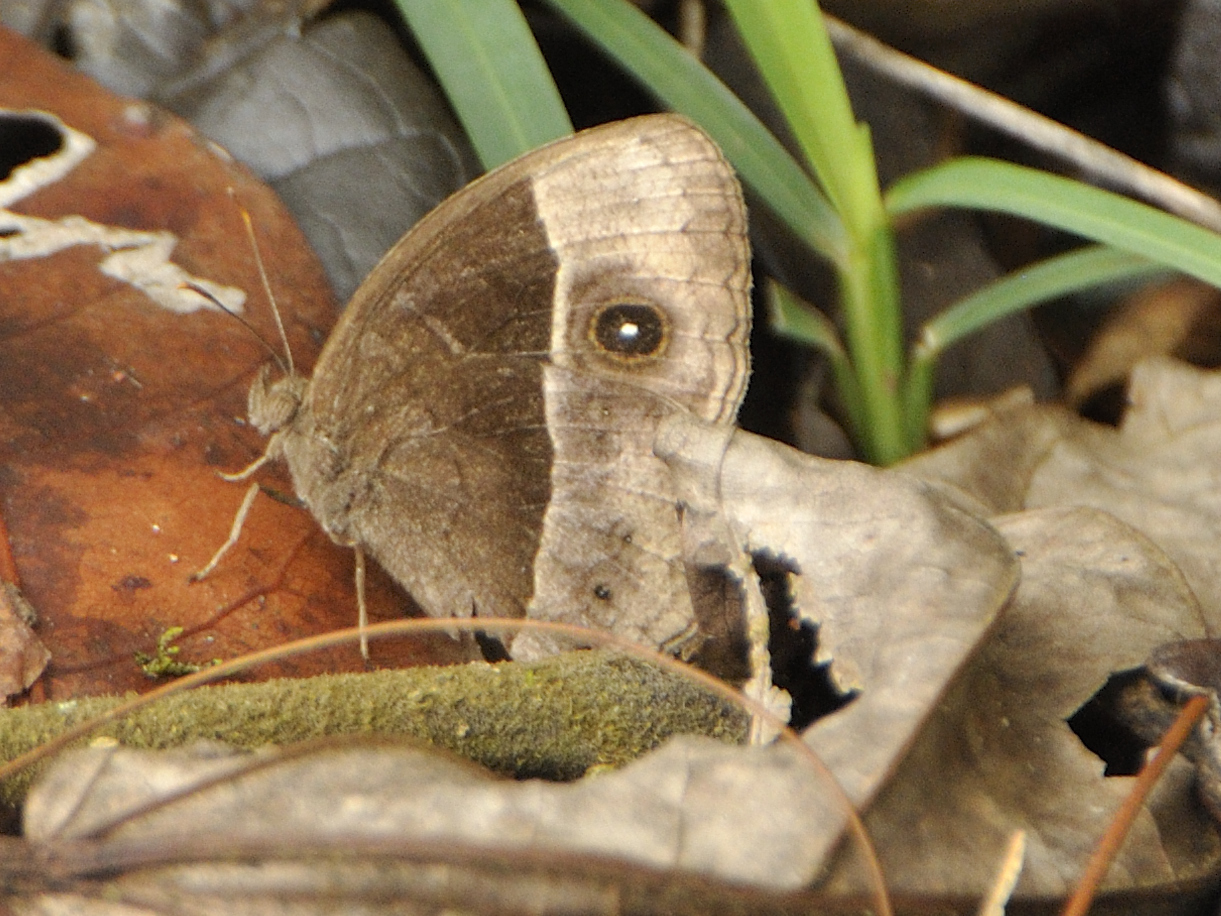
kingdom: Animalia
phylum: Arthropoda
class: Insecta
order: Lepidoptera
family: Nymphalidae
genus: Mycalesis
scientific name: Mycalesis rhacotis
